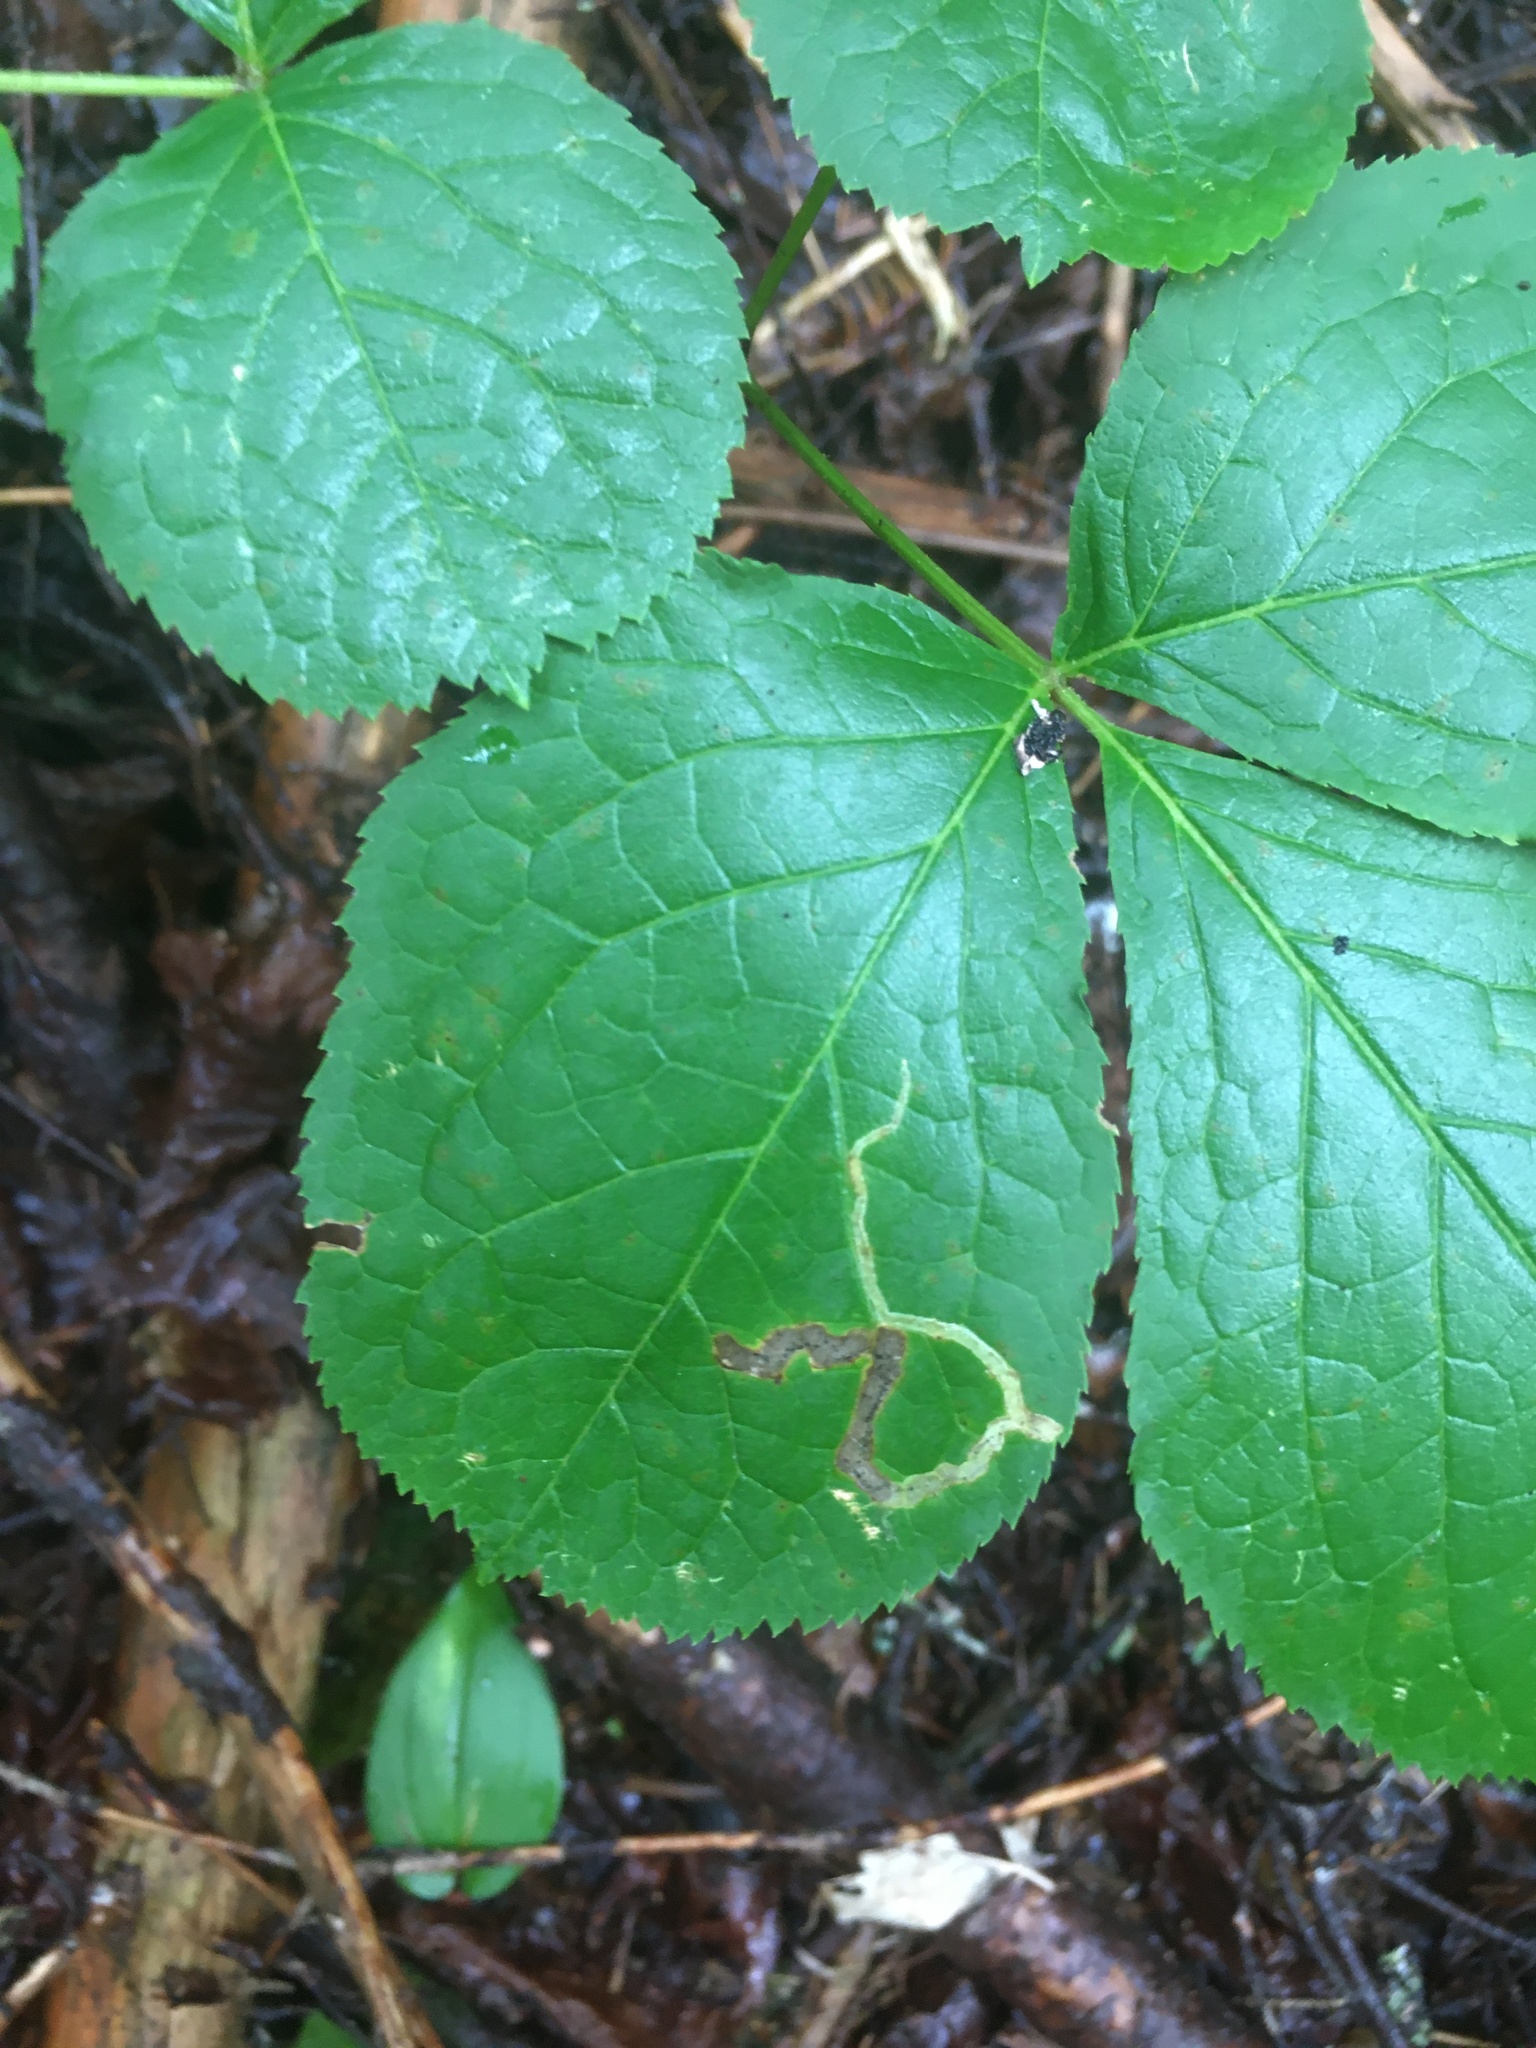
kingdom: Animalia
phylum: Arthropoda
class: Insecta
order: Diptera
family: Agromyzidae
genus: Phytomyza
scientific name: Phytomyza aralivora
